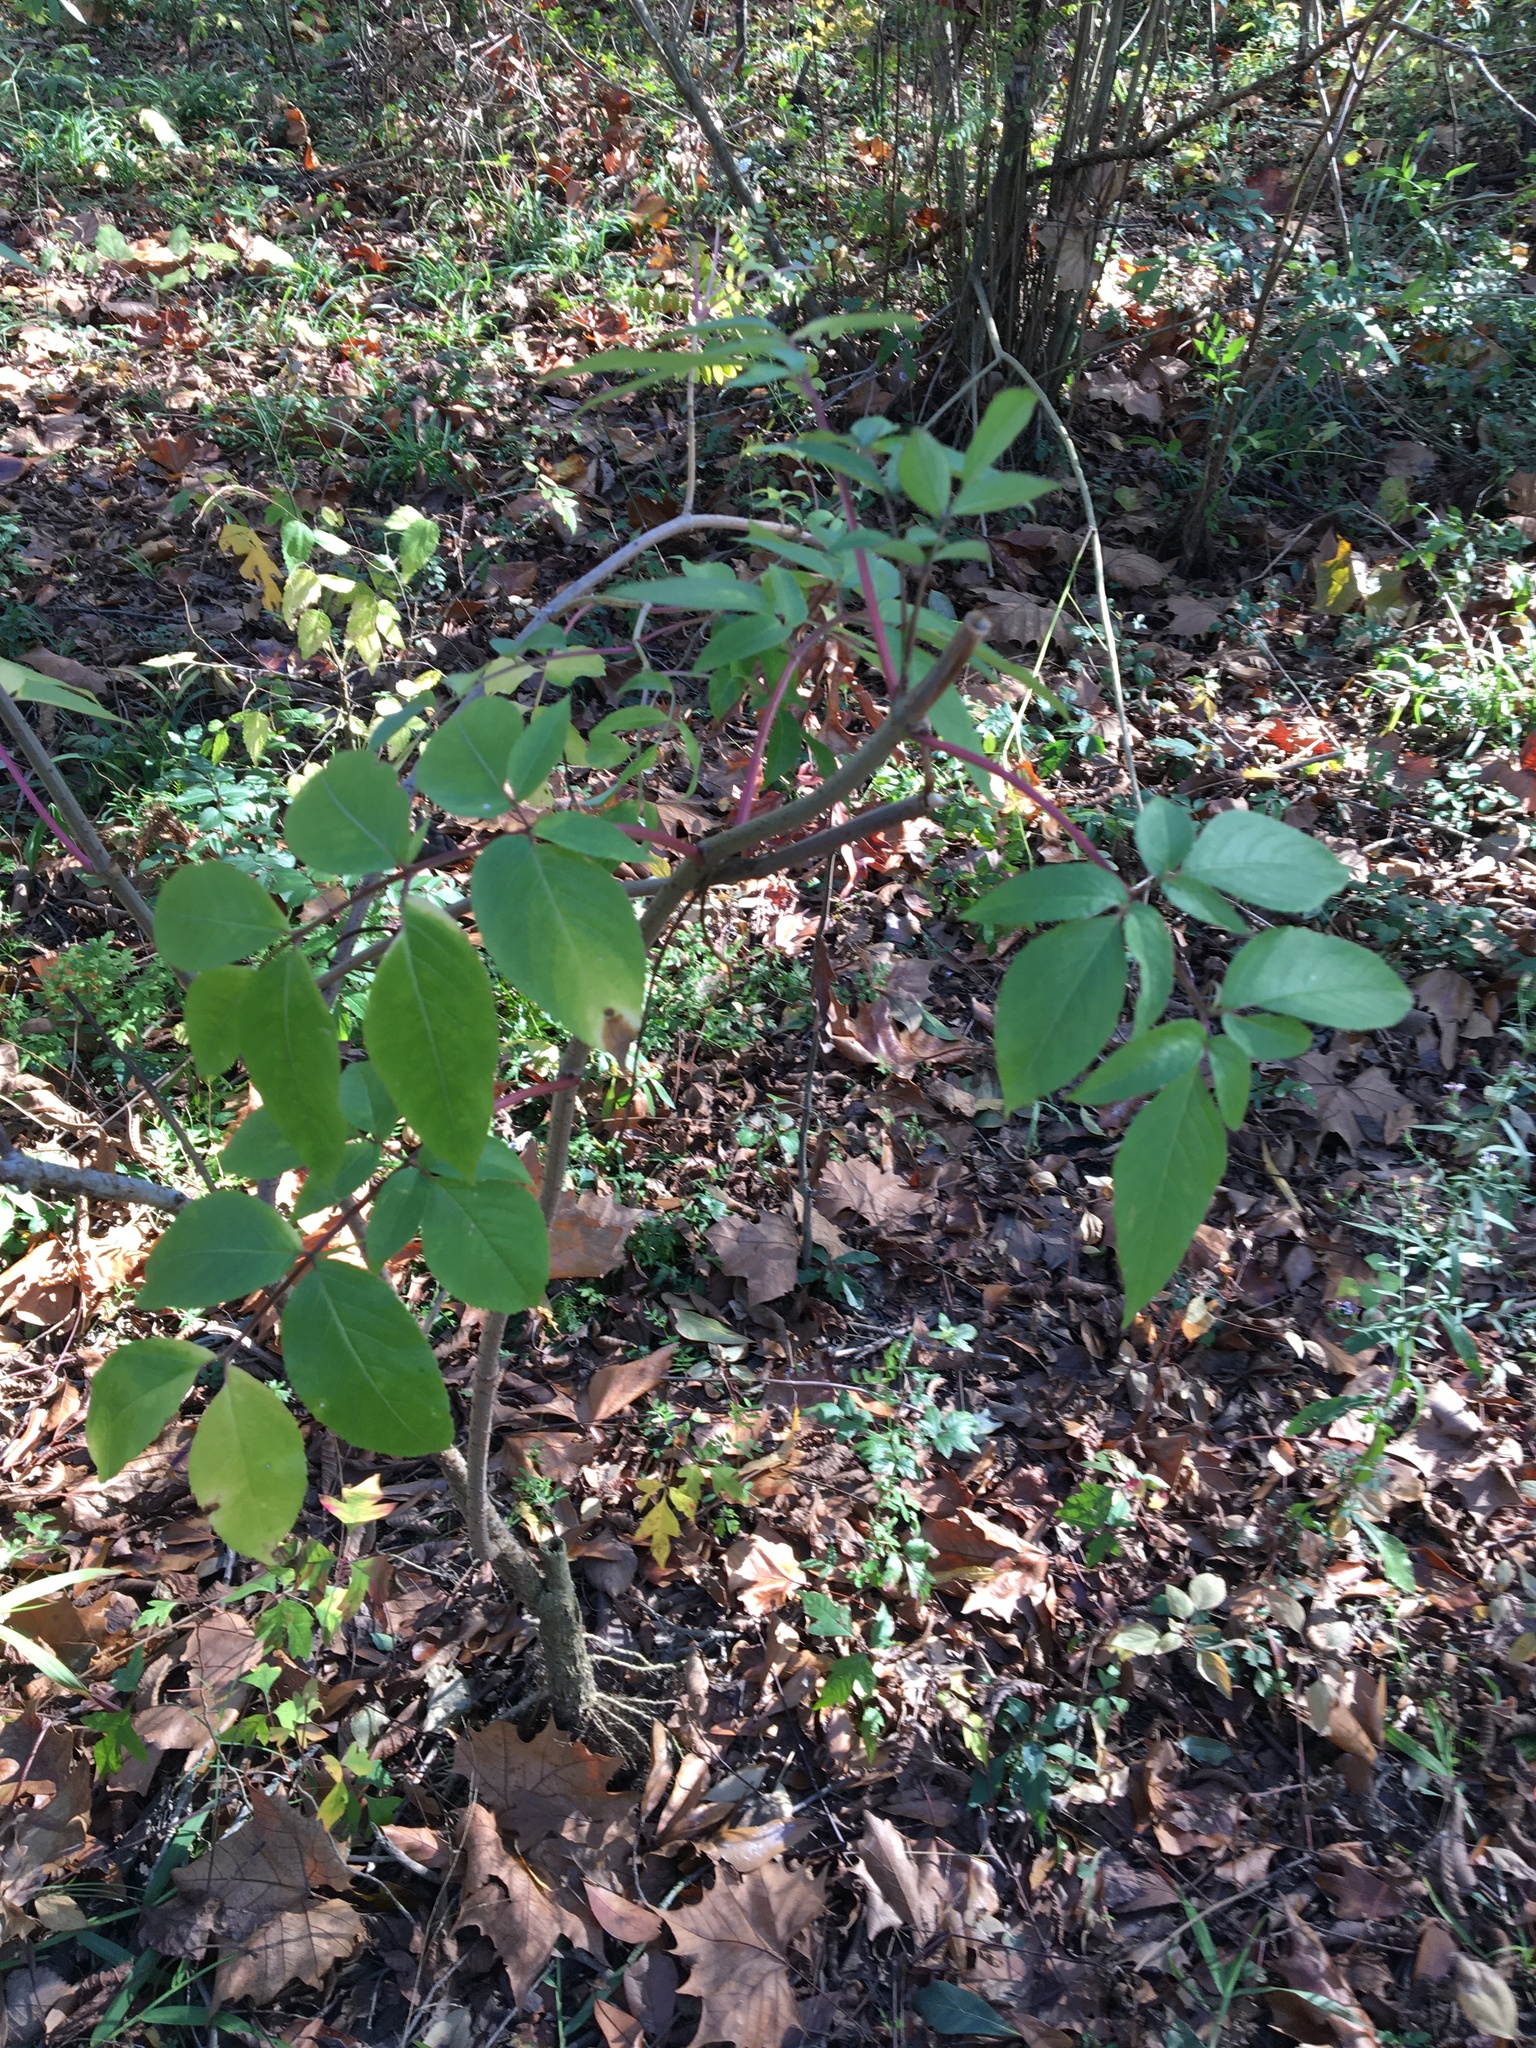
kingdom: Plantae
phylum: Tracheophyta
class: Magnoliopsida
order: Dipsacales
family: Viburnaceae
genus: Sambucus
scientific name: Sambucus canadensis
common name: American elder
